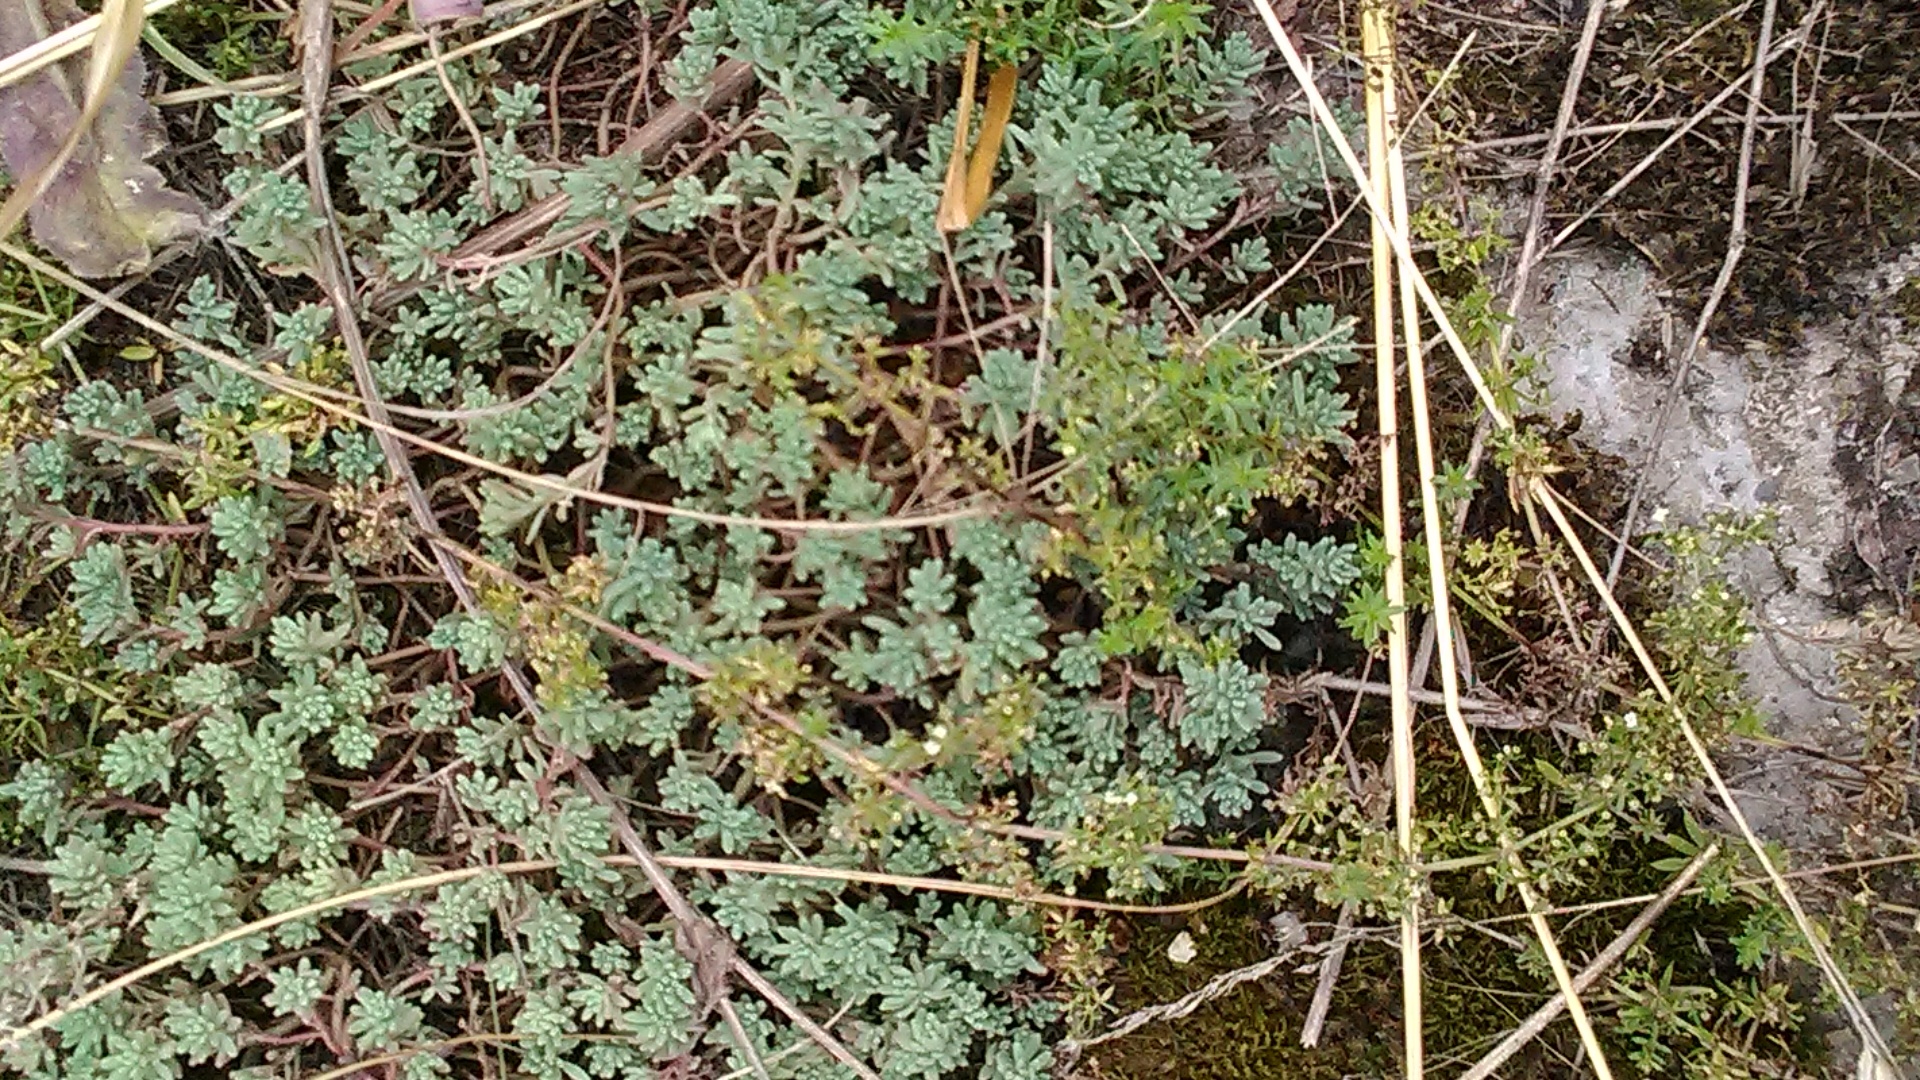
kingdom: Plantae
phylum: Tracheophyta
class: Magnoliopsida
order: Saxifragales
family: Crassulaceae
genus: Sedum
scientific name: Sedum pallidum
